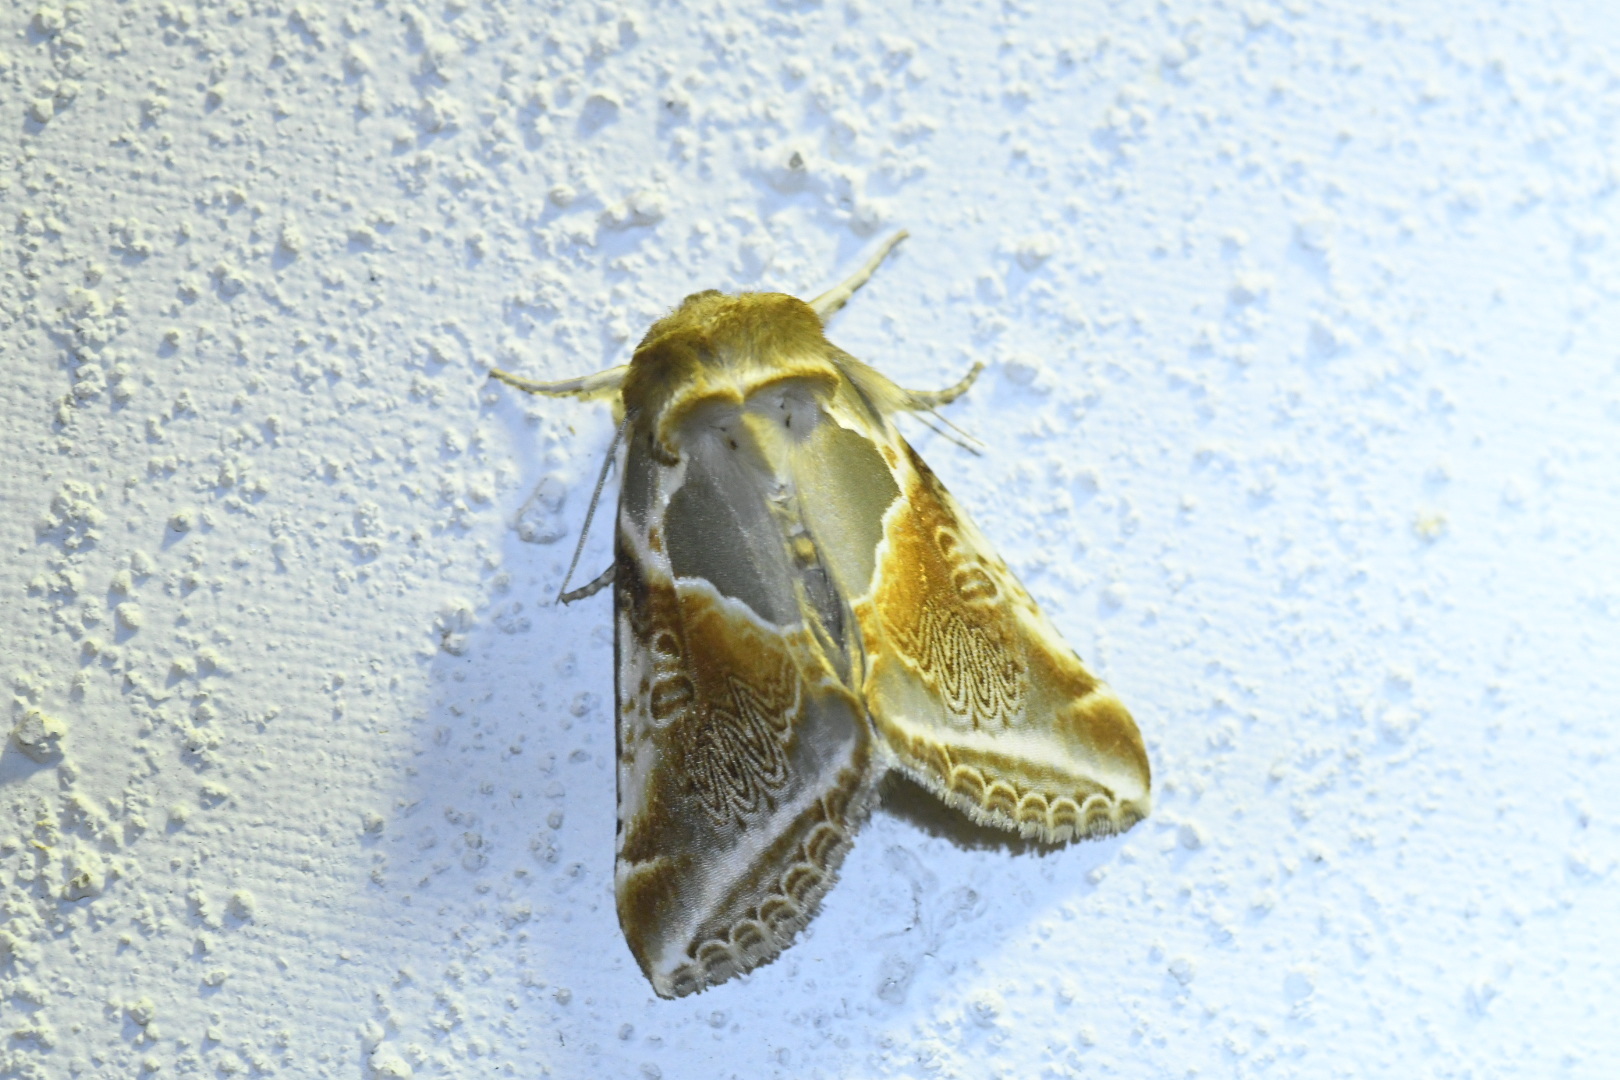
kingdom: Animalia
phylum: Arthropoda
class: Insecta
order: Lepidoptera
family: Drepanidae
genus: Habrosyne
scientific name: Habrosyne pyritoides
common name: Buff arches
